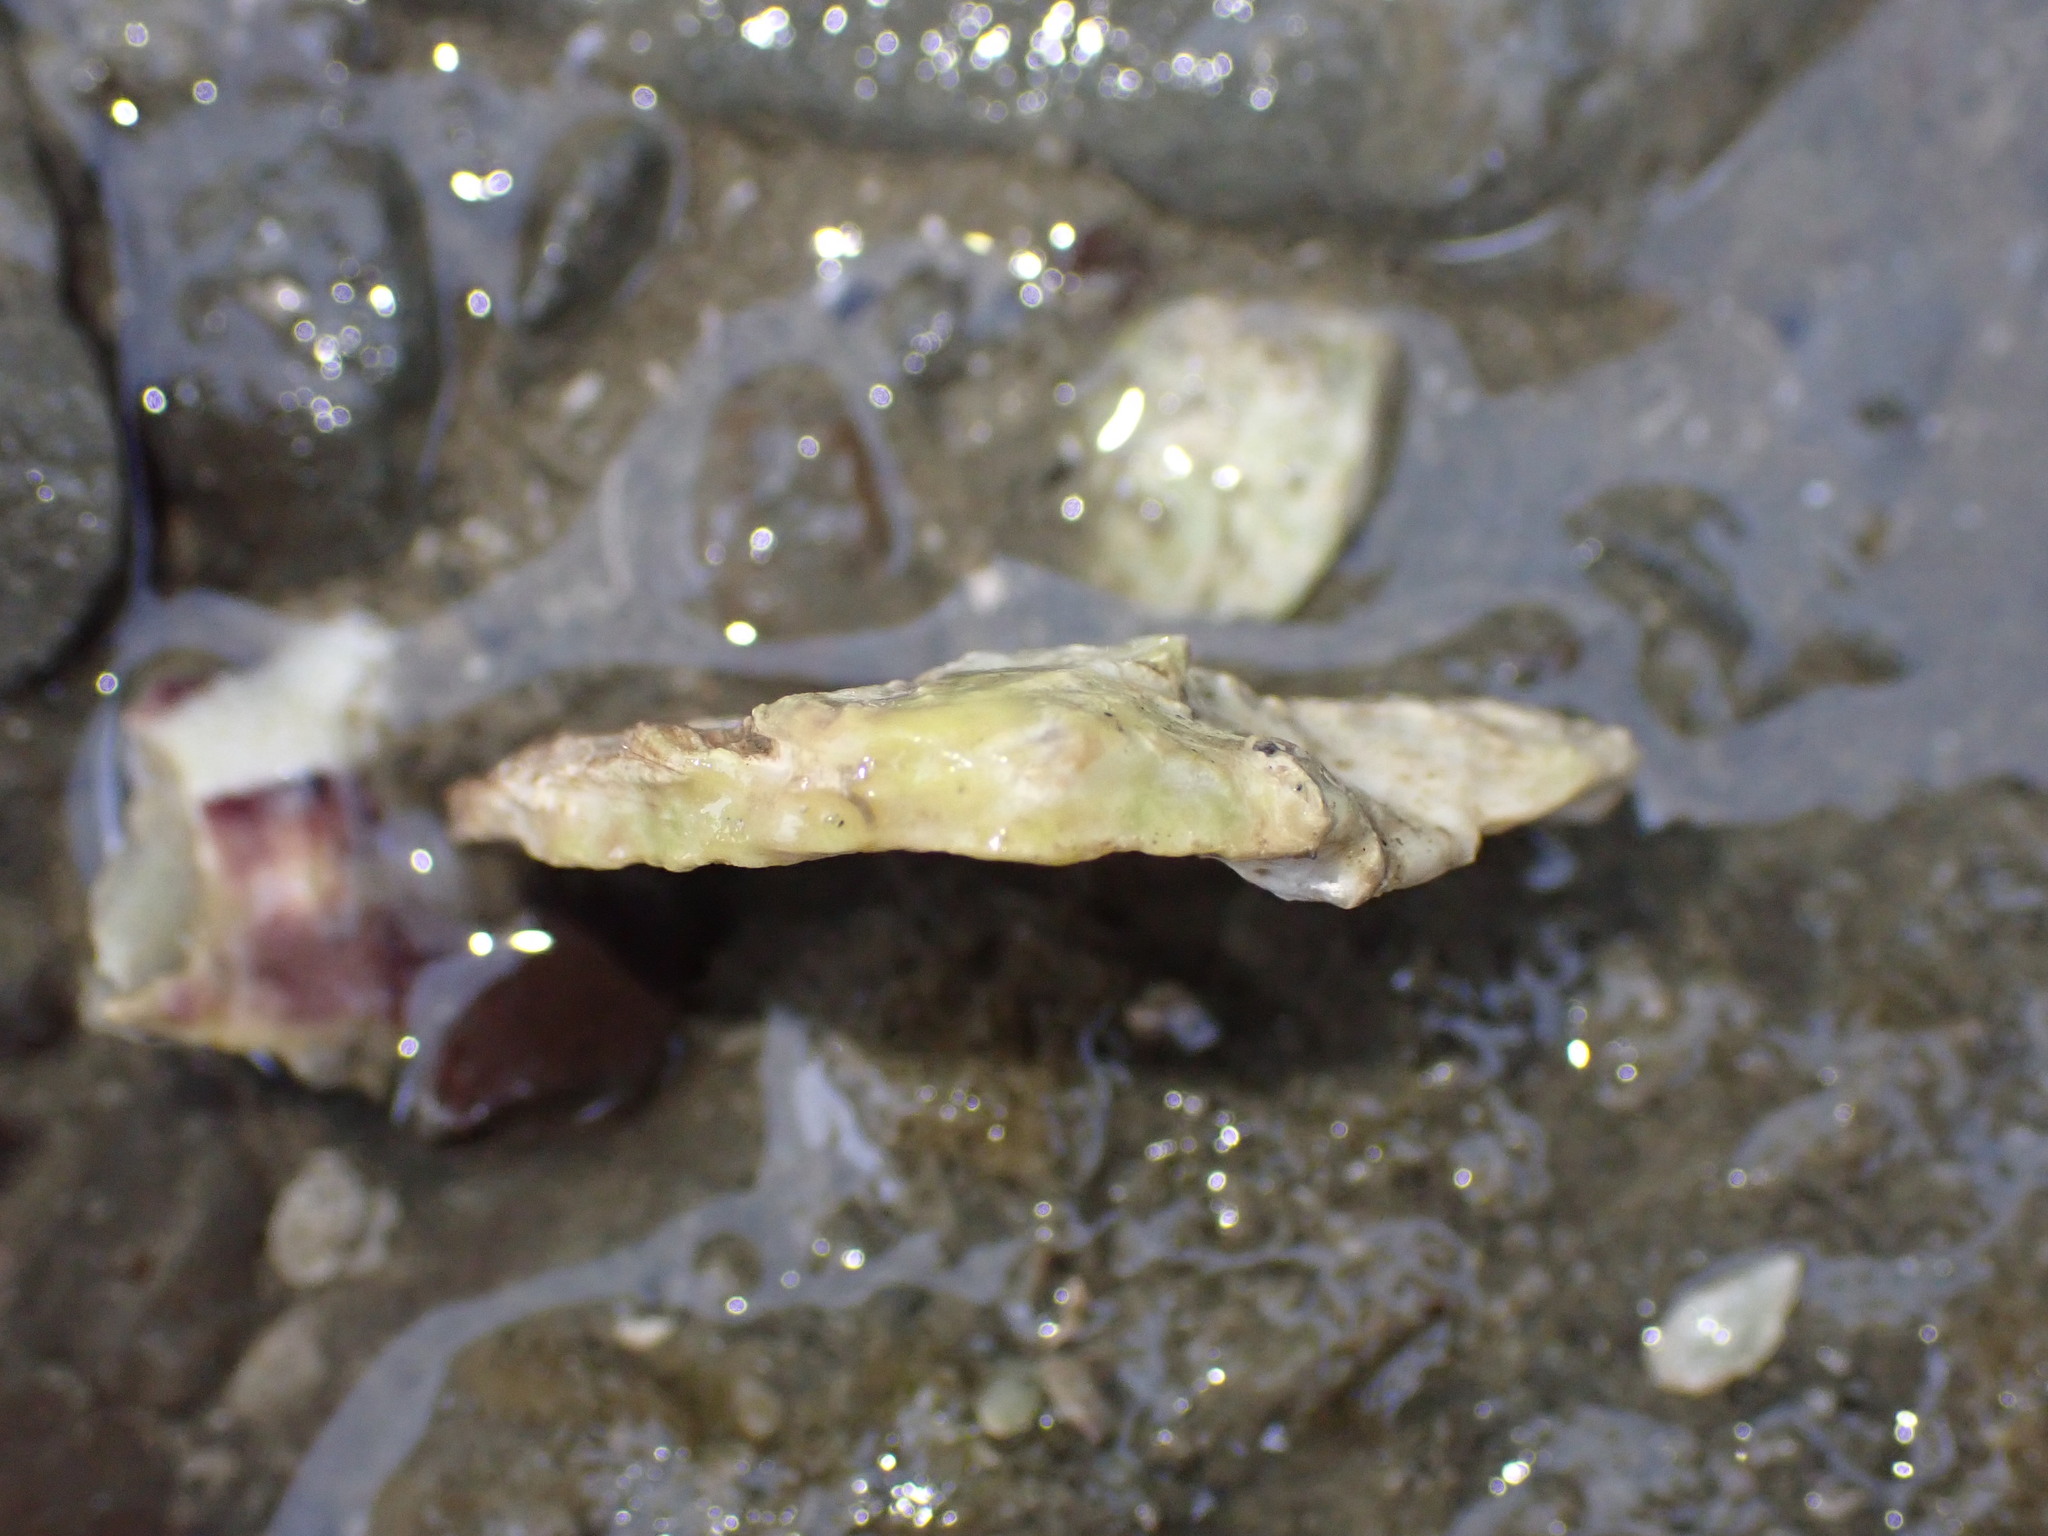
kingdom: Animalia
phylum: Mollusca
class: Bivalvia
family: Cleidothaeridae
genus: Cleidothaerus
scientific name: Cleidothaerus albidus
